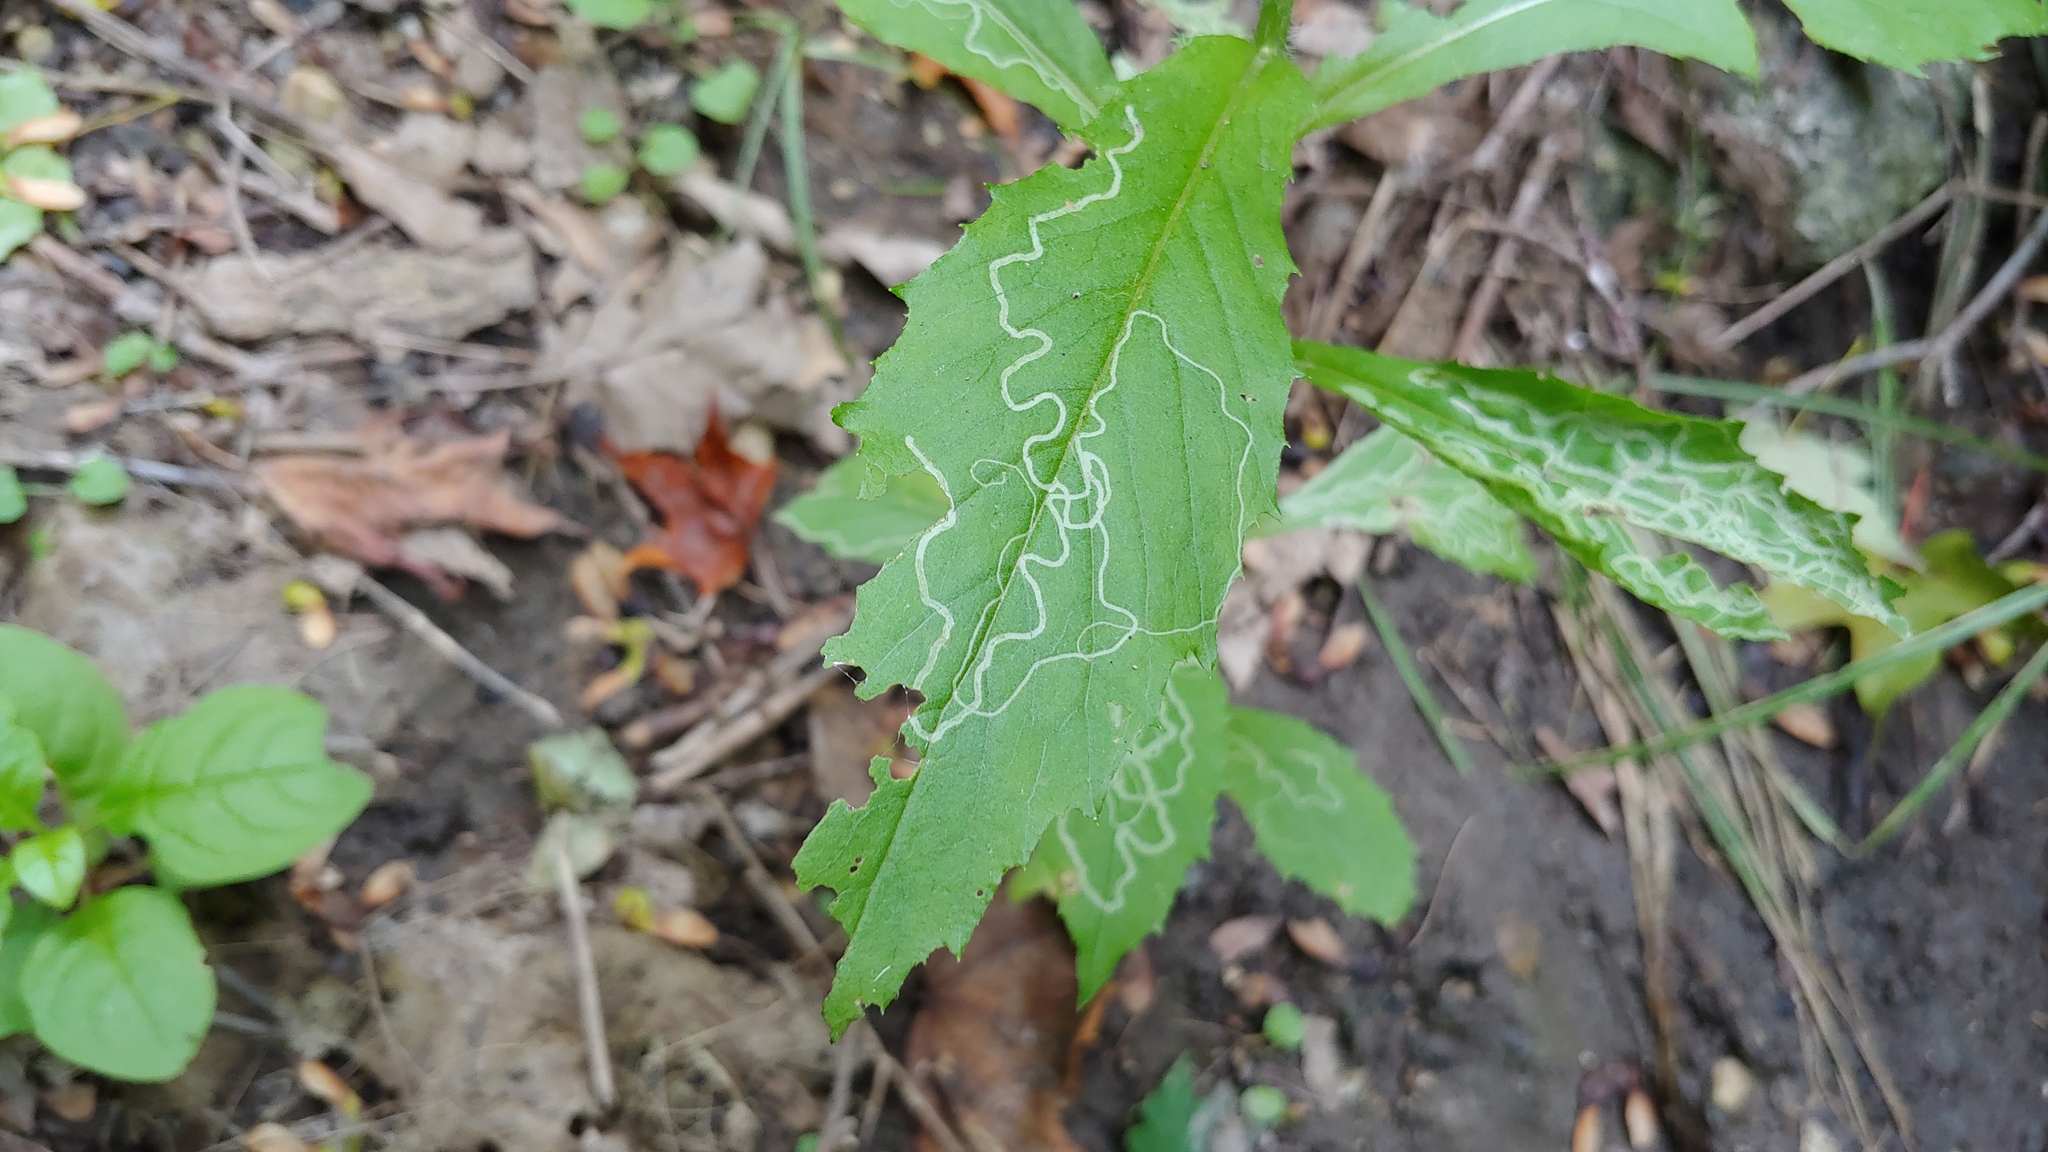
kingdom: Animalia
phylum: Arthropoda
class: Insecta
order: Lepidoptera
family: Gracillariidae
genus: Phyllocnistis
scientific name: Phyllocnistis insignis
